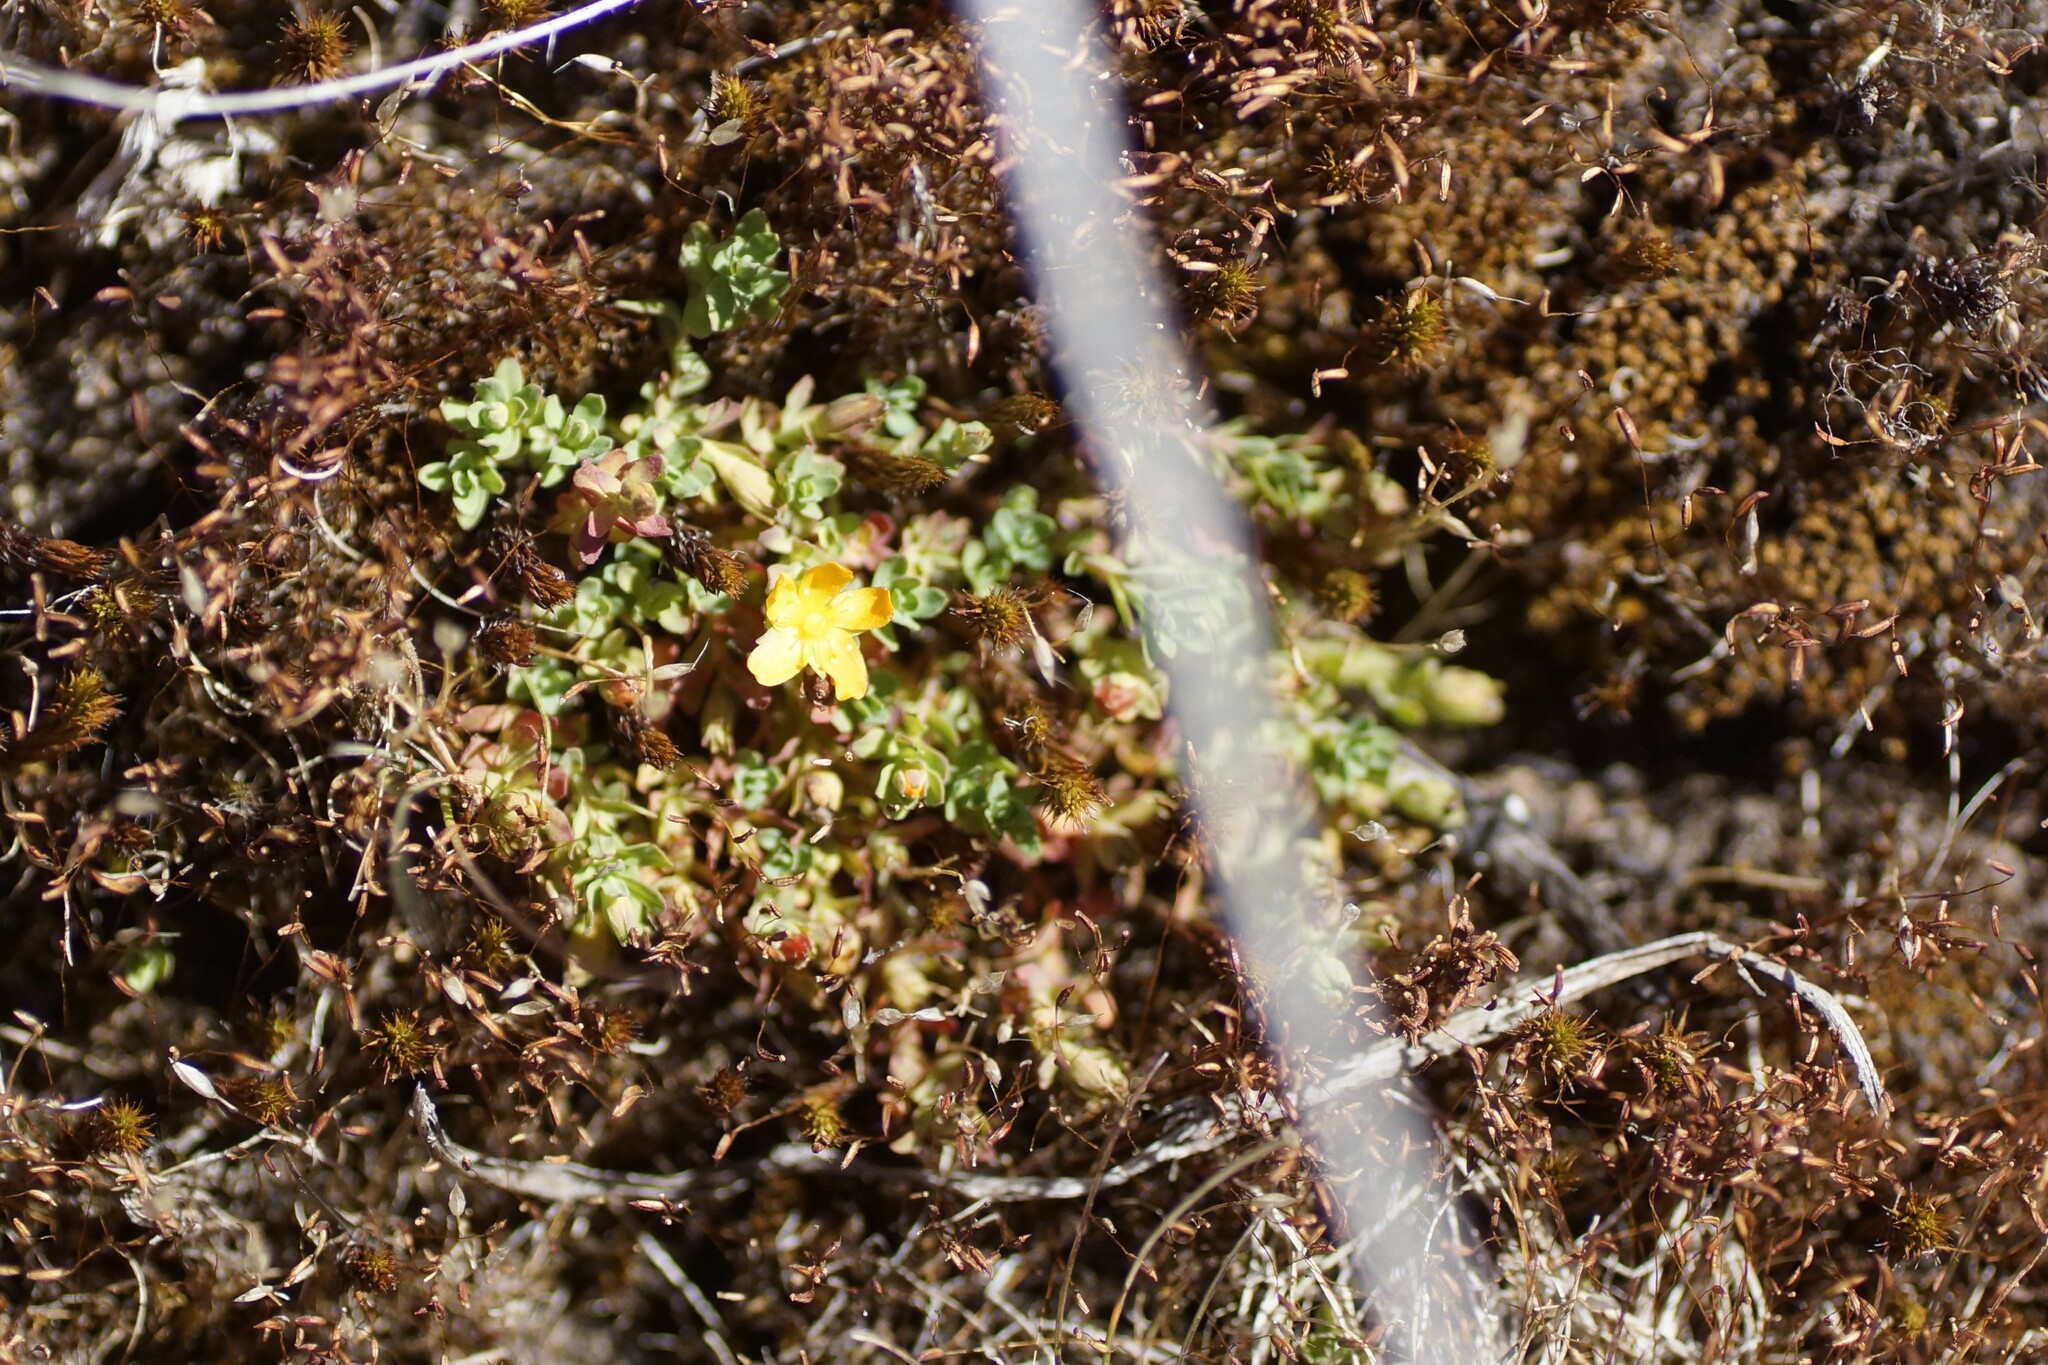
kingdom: Plantae
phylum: Tracheophyta
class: Magnoliopsida
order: Malpighiales
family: Hypericaceae
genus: Hypericum
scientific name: Hypericum japonicum
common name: Matted st. john's-wort
